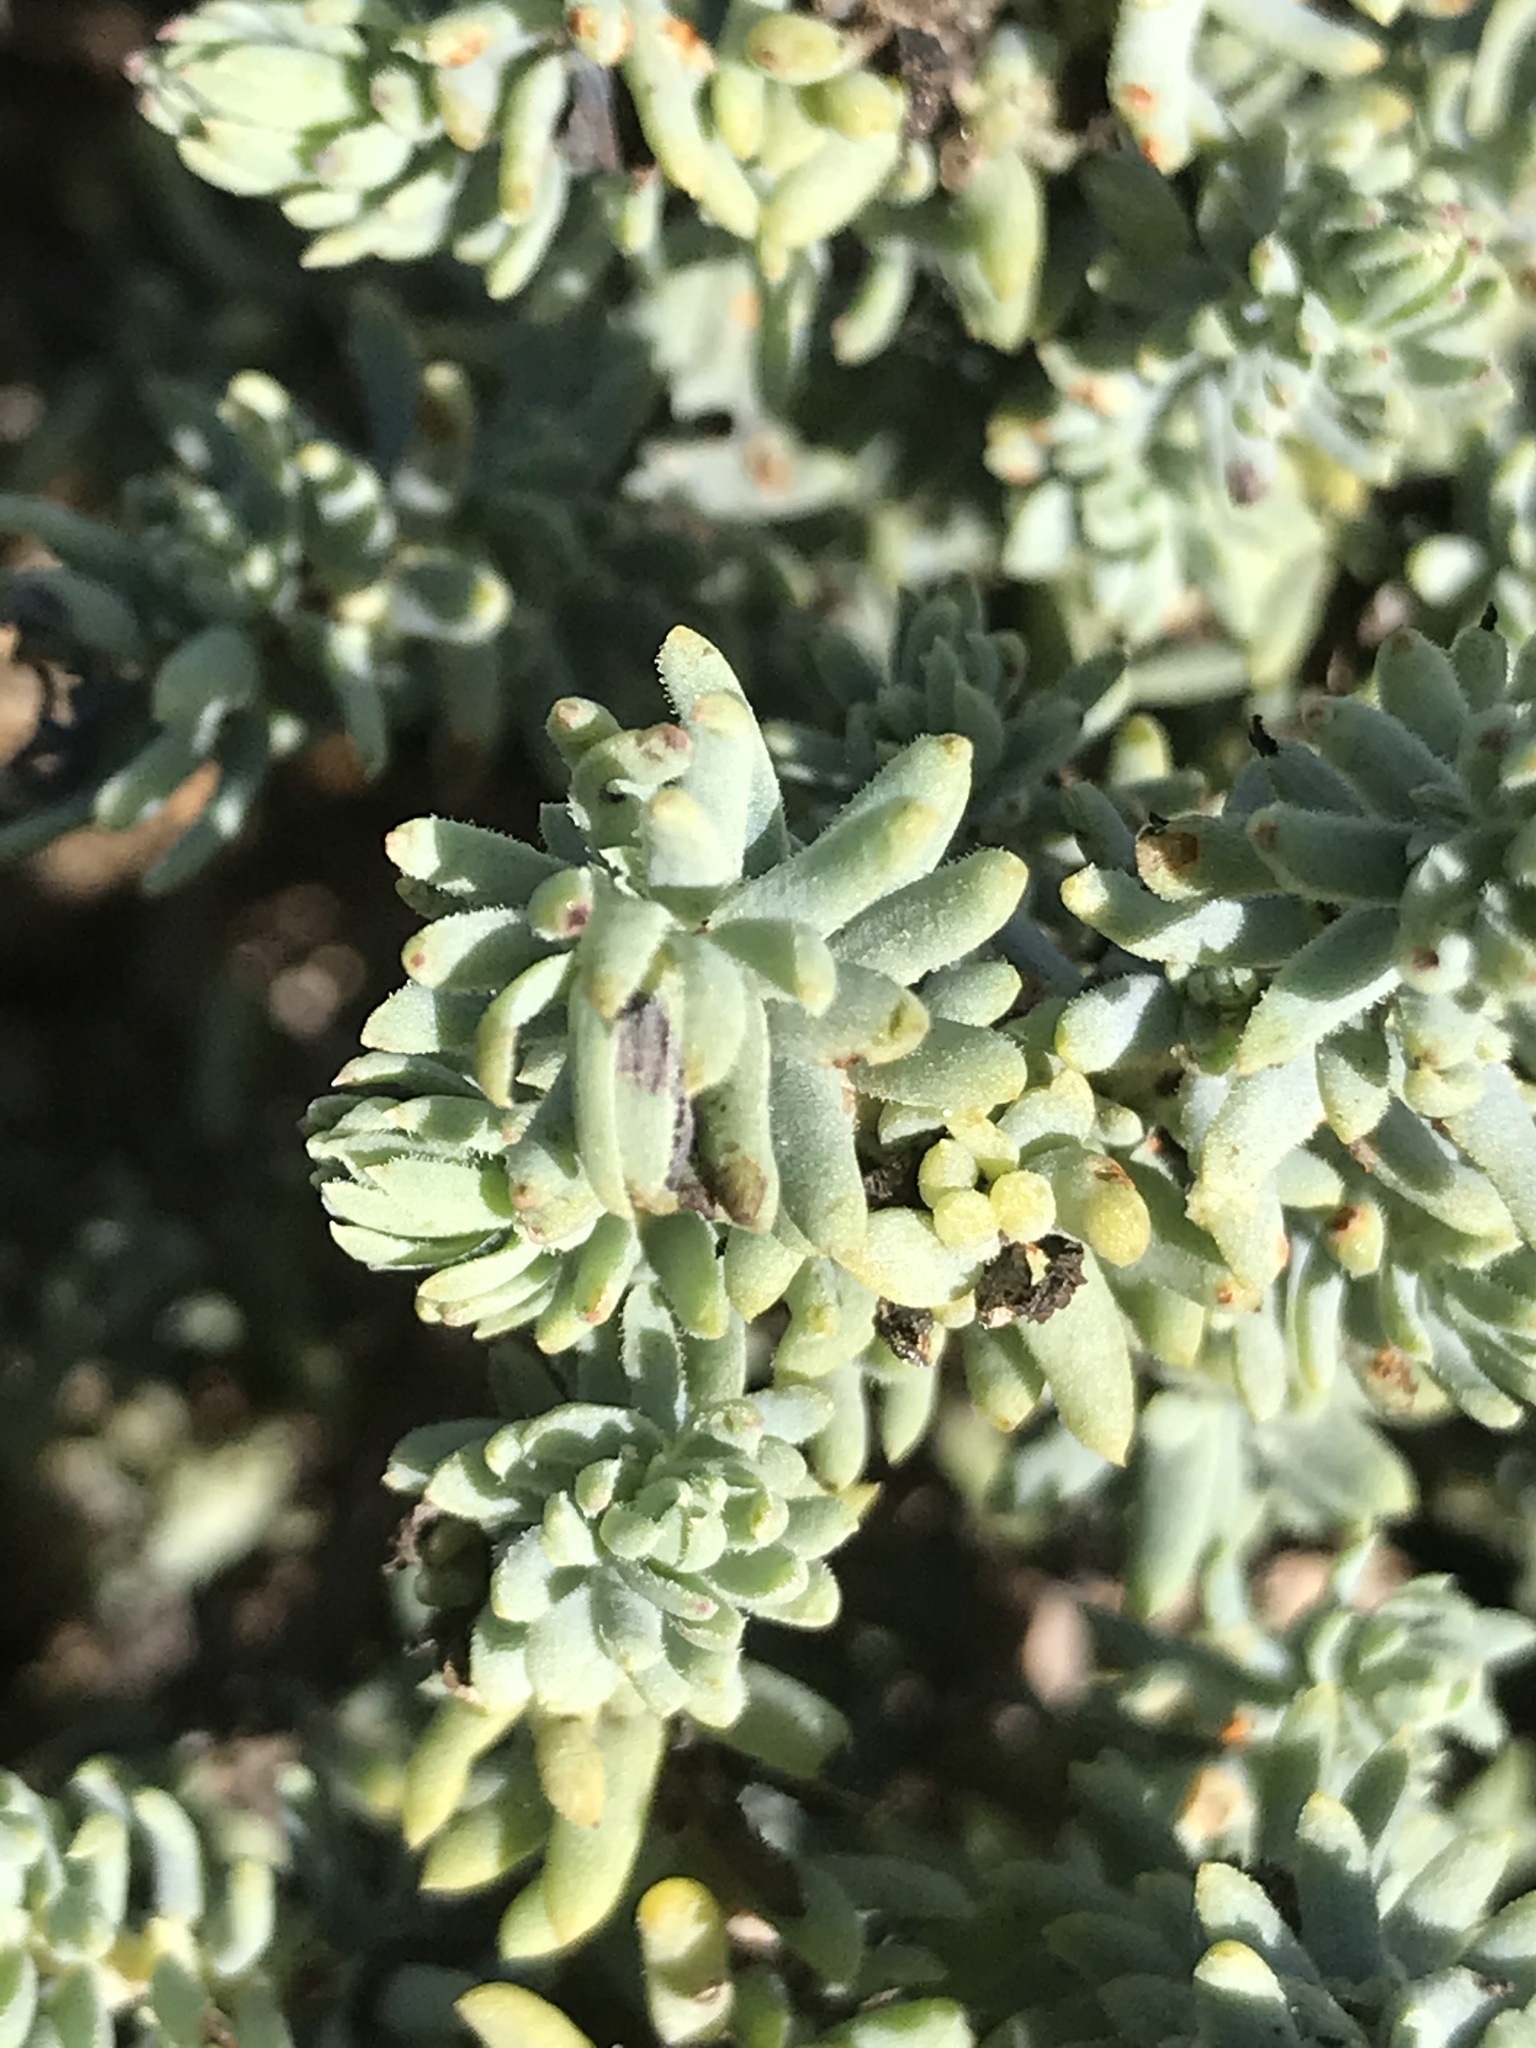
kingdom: Plantae
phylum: Tracheophyta
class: Magnoliopsida
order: Caryophyllales
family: Amaranthaceae
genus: Suaeda
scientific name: Suaeda taxifolia
